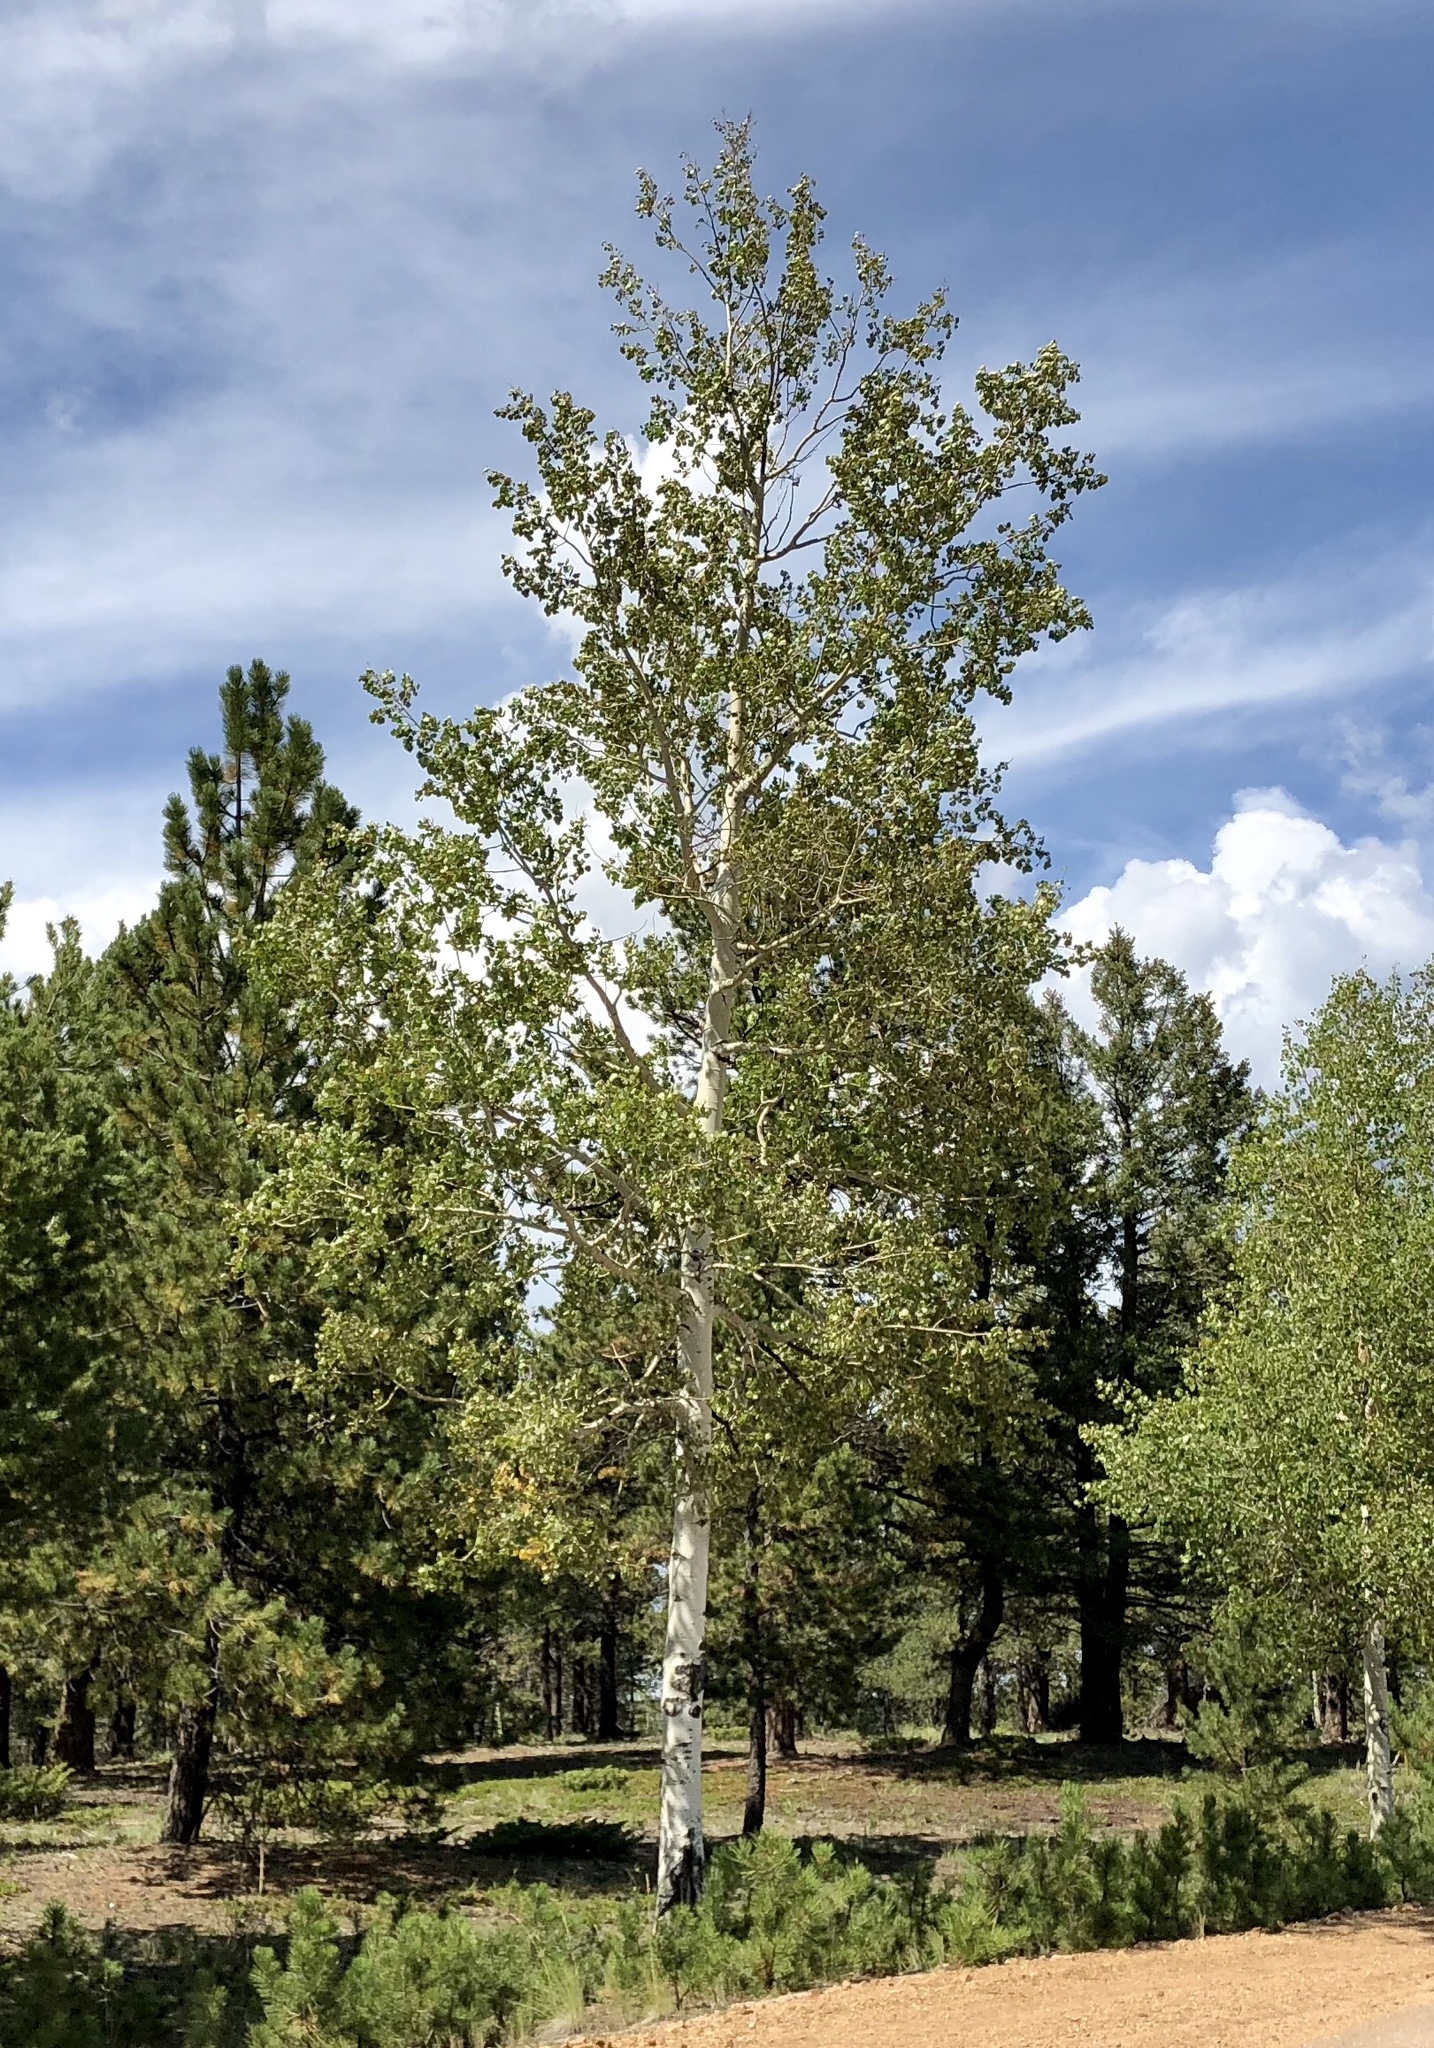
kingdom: Plantae
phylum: Tracheophyta
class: Magnoliopsida
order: Malpighiales
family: Salicaceae
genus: Populus
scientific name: Populus tremuloides
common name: Quaking aspen
